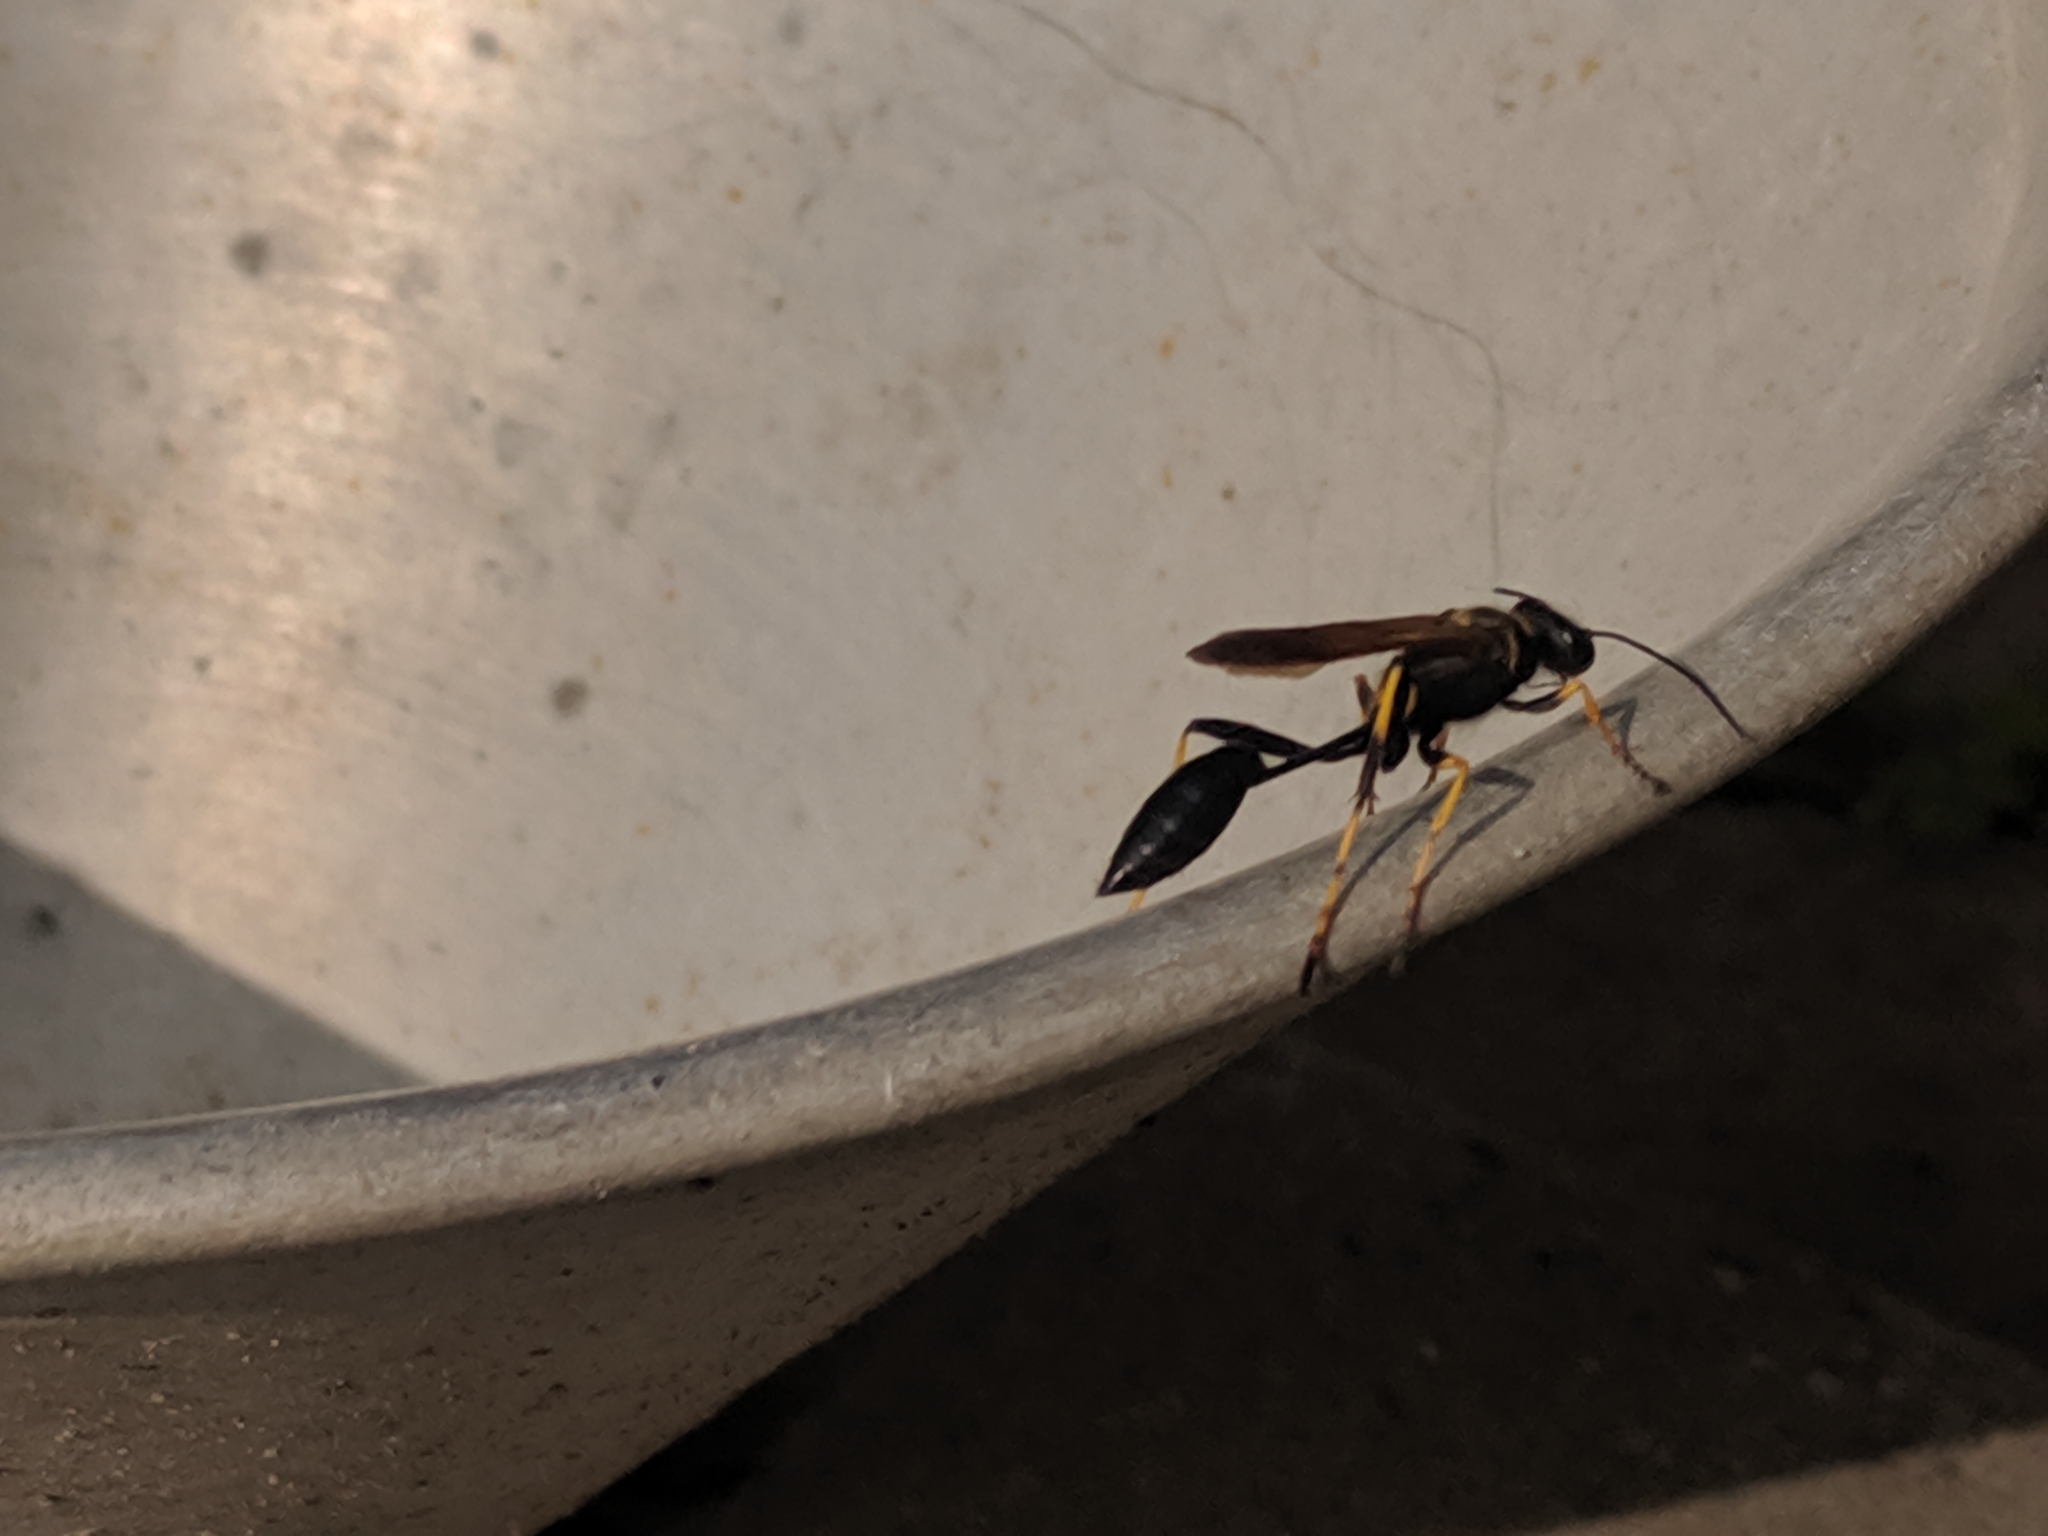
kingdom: Animalia
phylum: Arthropoda
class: Insecta
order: Hymenoptera
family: Sphecidae
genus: Sceliphron
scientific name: Sceliphron caementarium
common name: Mud dauber
